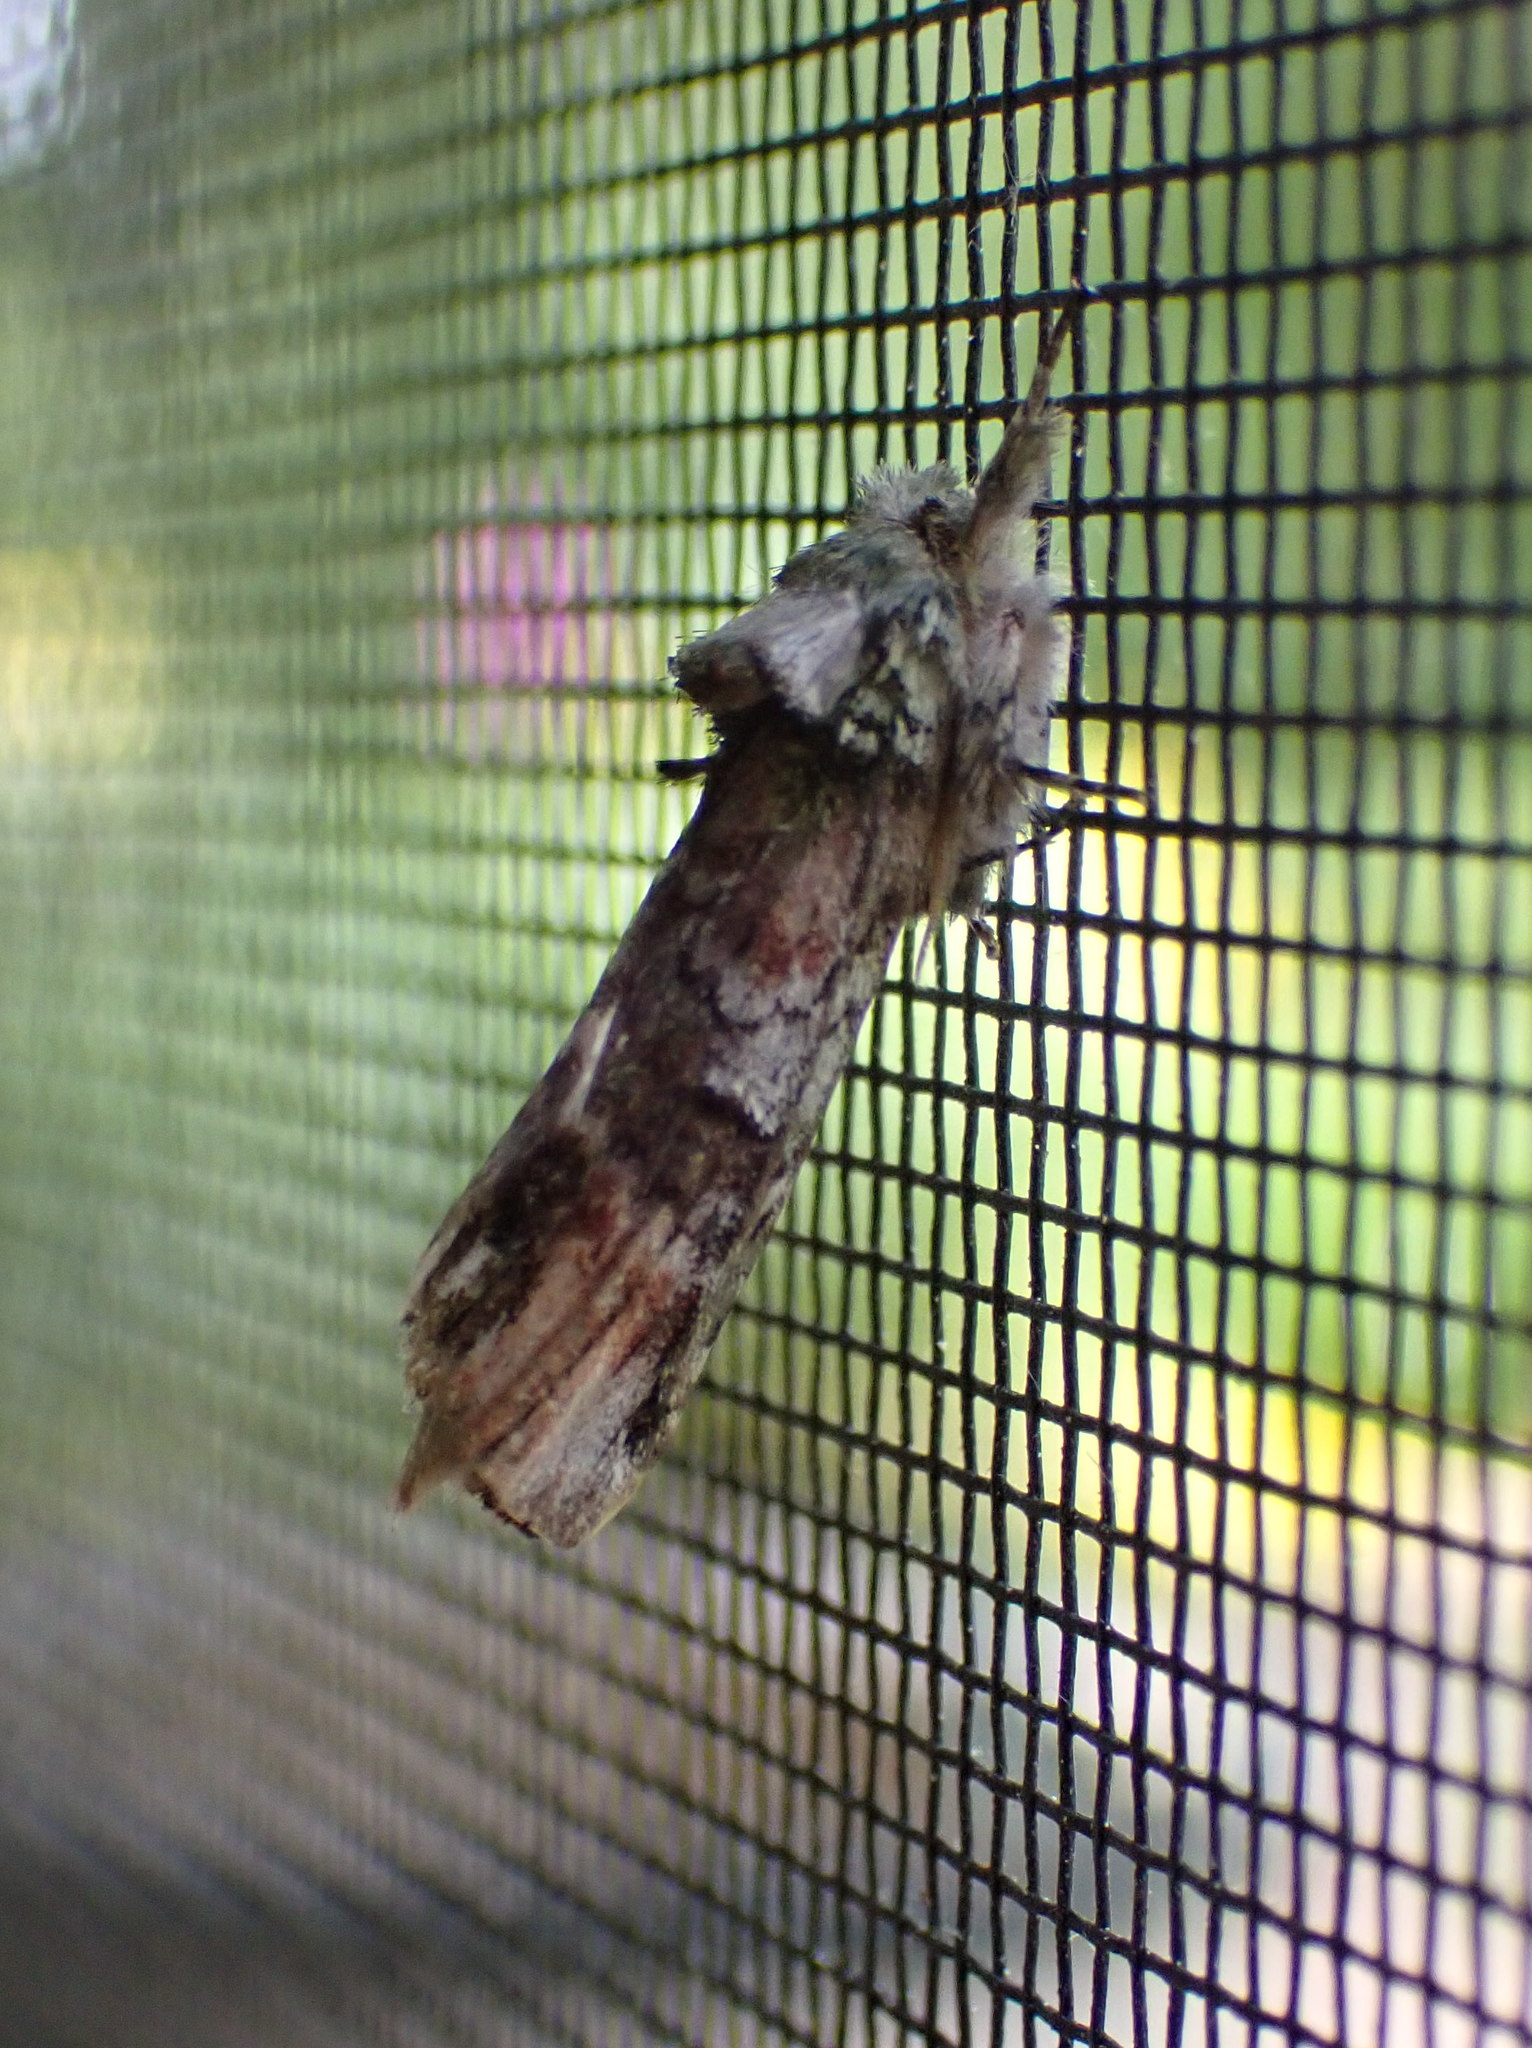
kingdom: Animalia
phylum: Arthropoda
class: Insecta
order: Lepidoptera
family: Notodontidae
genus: Schizura
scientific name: Schizura
